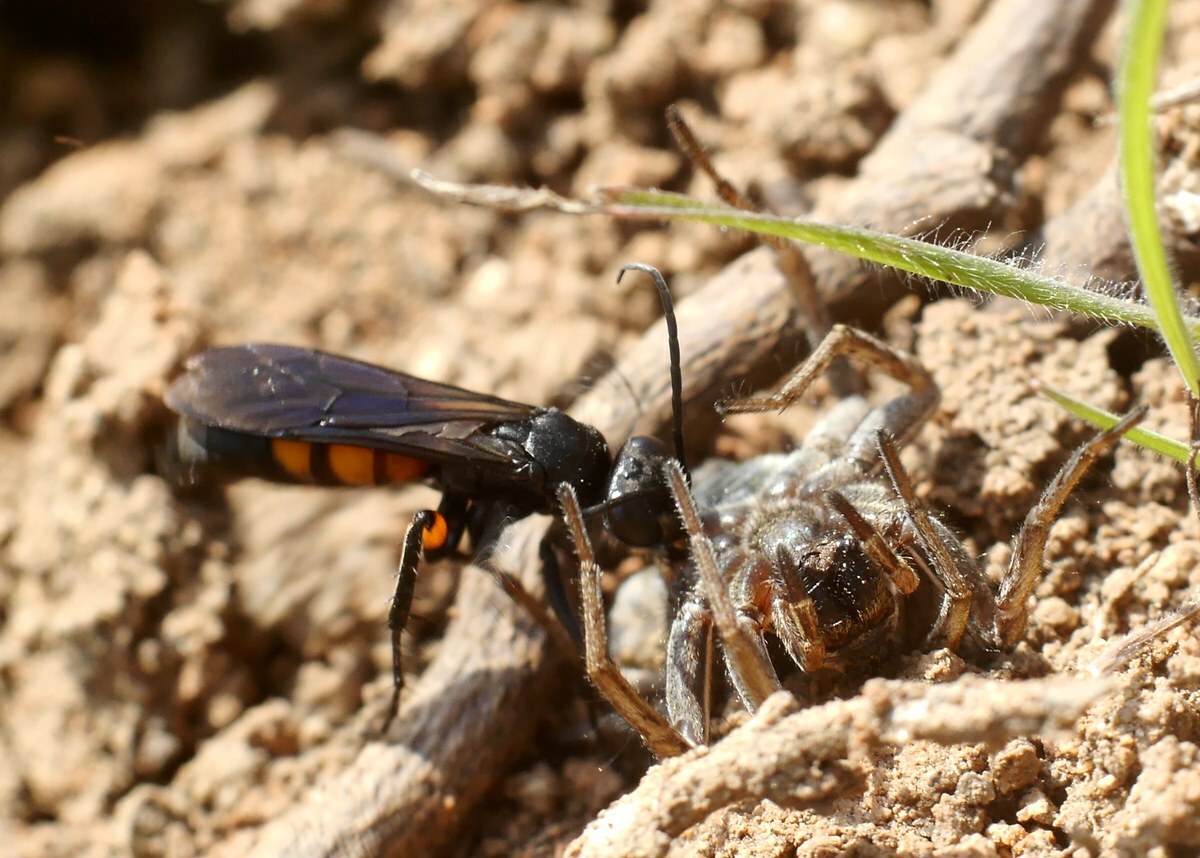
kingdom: Animalia
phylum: Arthropoda
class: Insecta
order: Hymenoptera
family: Pompilidae
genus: Anoplius
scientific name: Anoplius viaticus
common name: Black banded spider wasp
